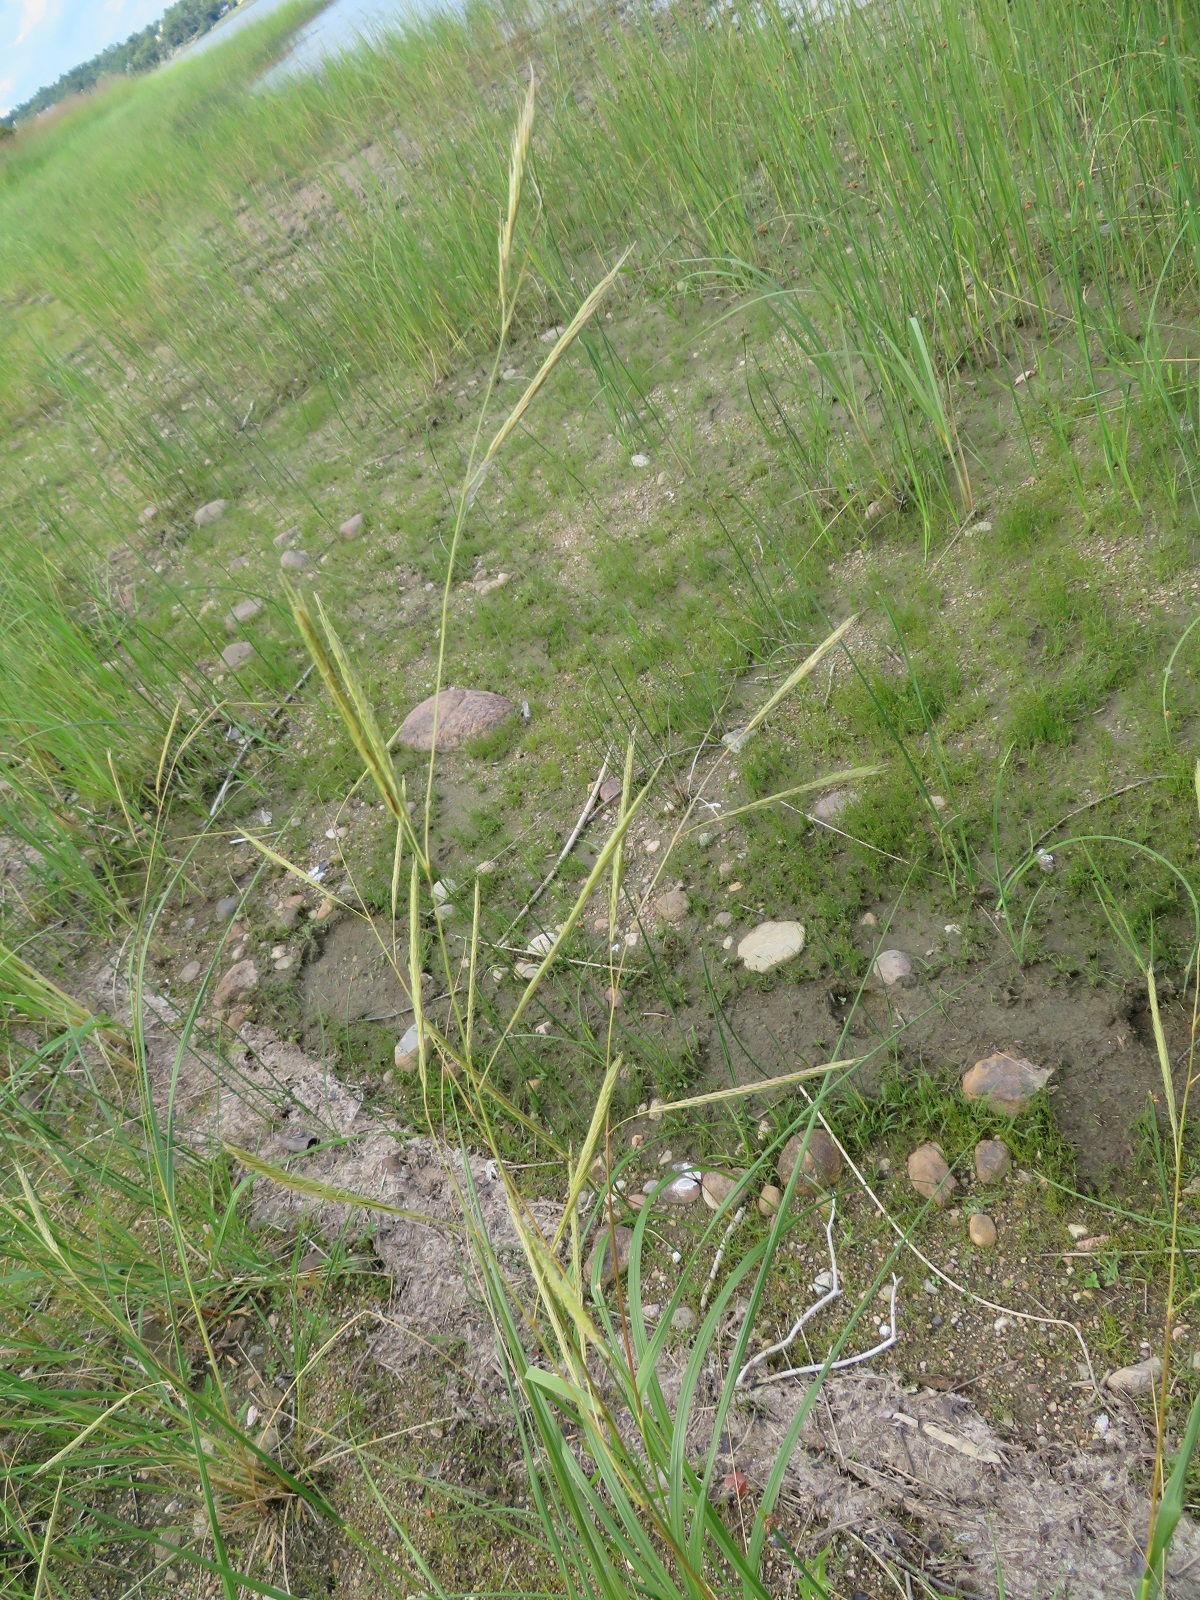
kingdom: Plantae
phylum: Tracheophyta
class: Liliopsida
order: Poales
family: Poaceae
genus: Sporobolus
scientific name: Sporobolus michauxianus
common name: Freshwater cordgrass
